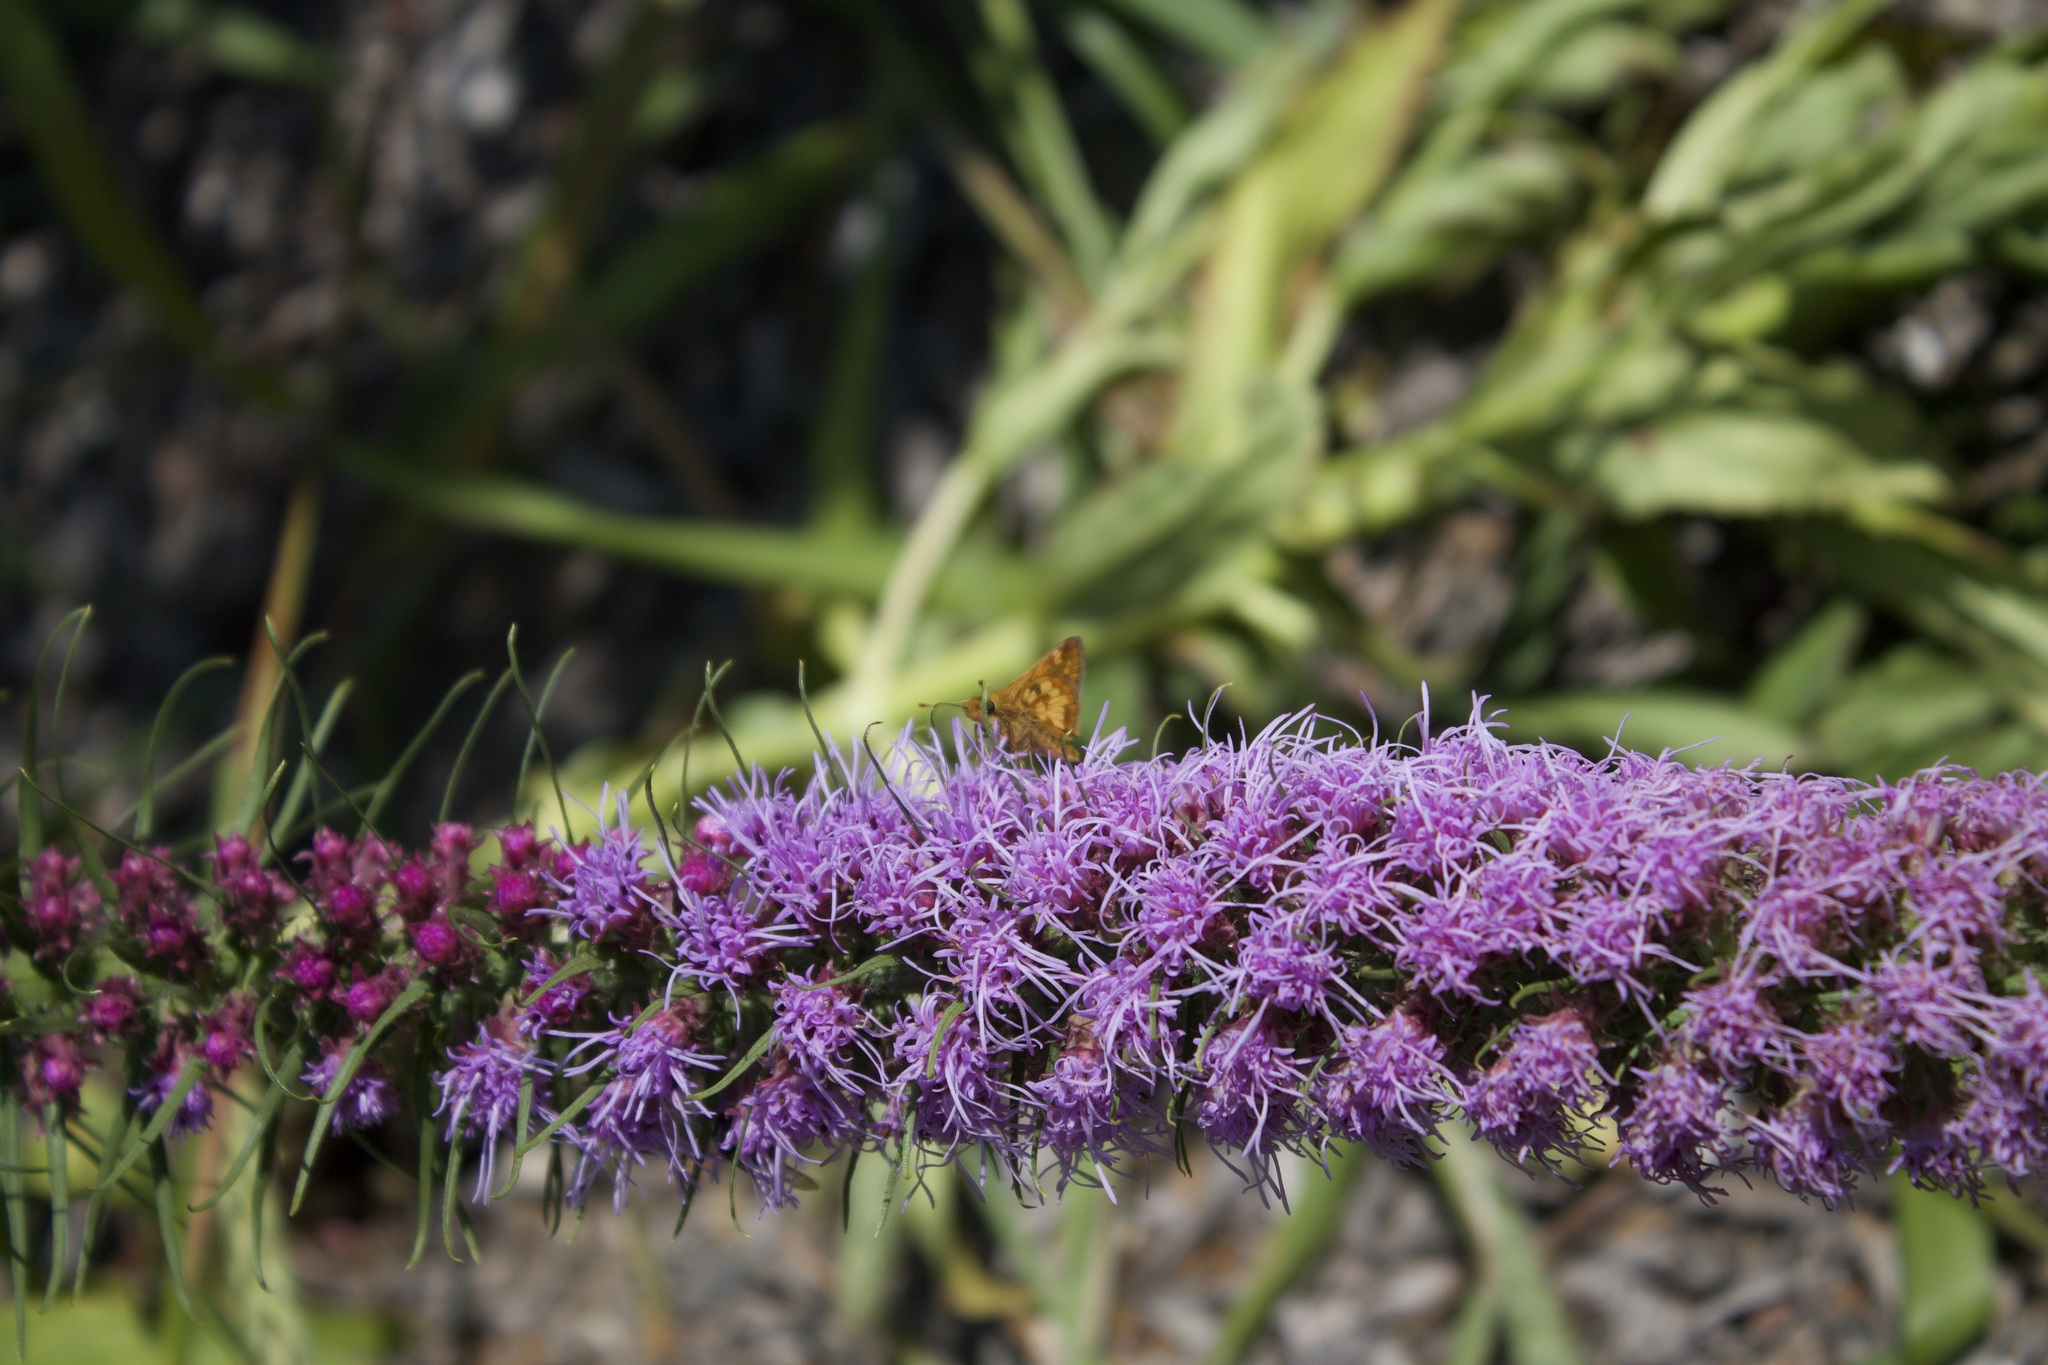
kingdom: Animalia
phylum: Arthropoda
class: Insecta
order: Lepidoptera
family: Hesperiidae
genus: Polites
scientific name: Polites coras
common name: Peck's skipper
